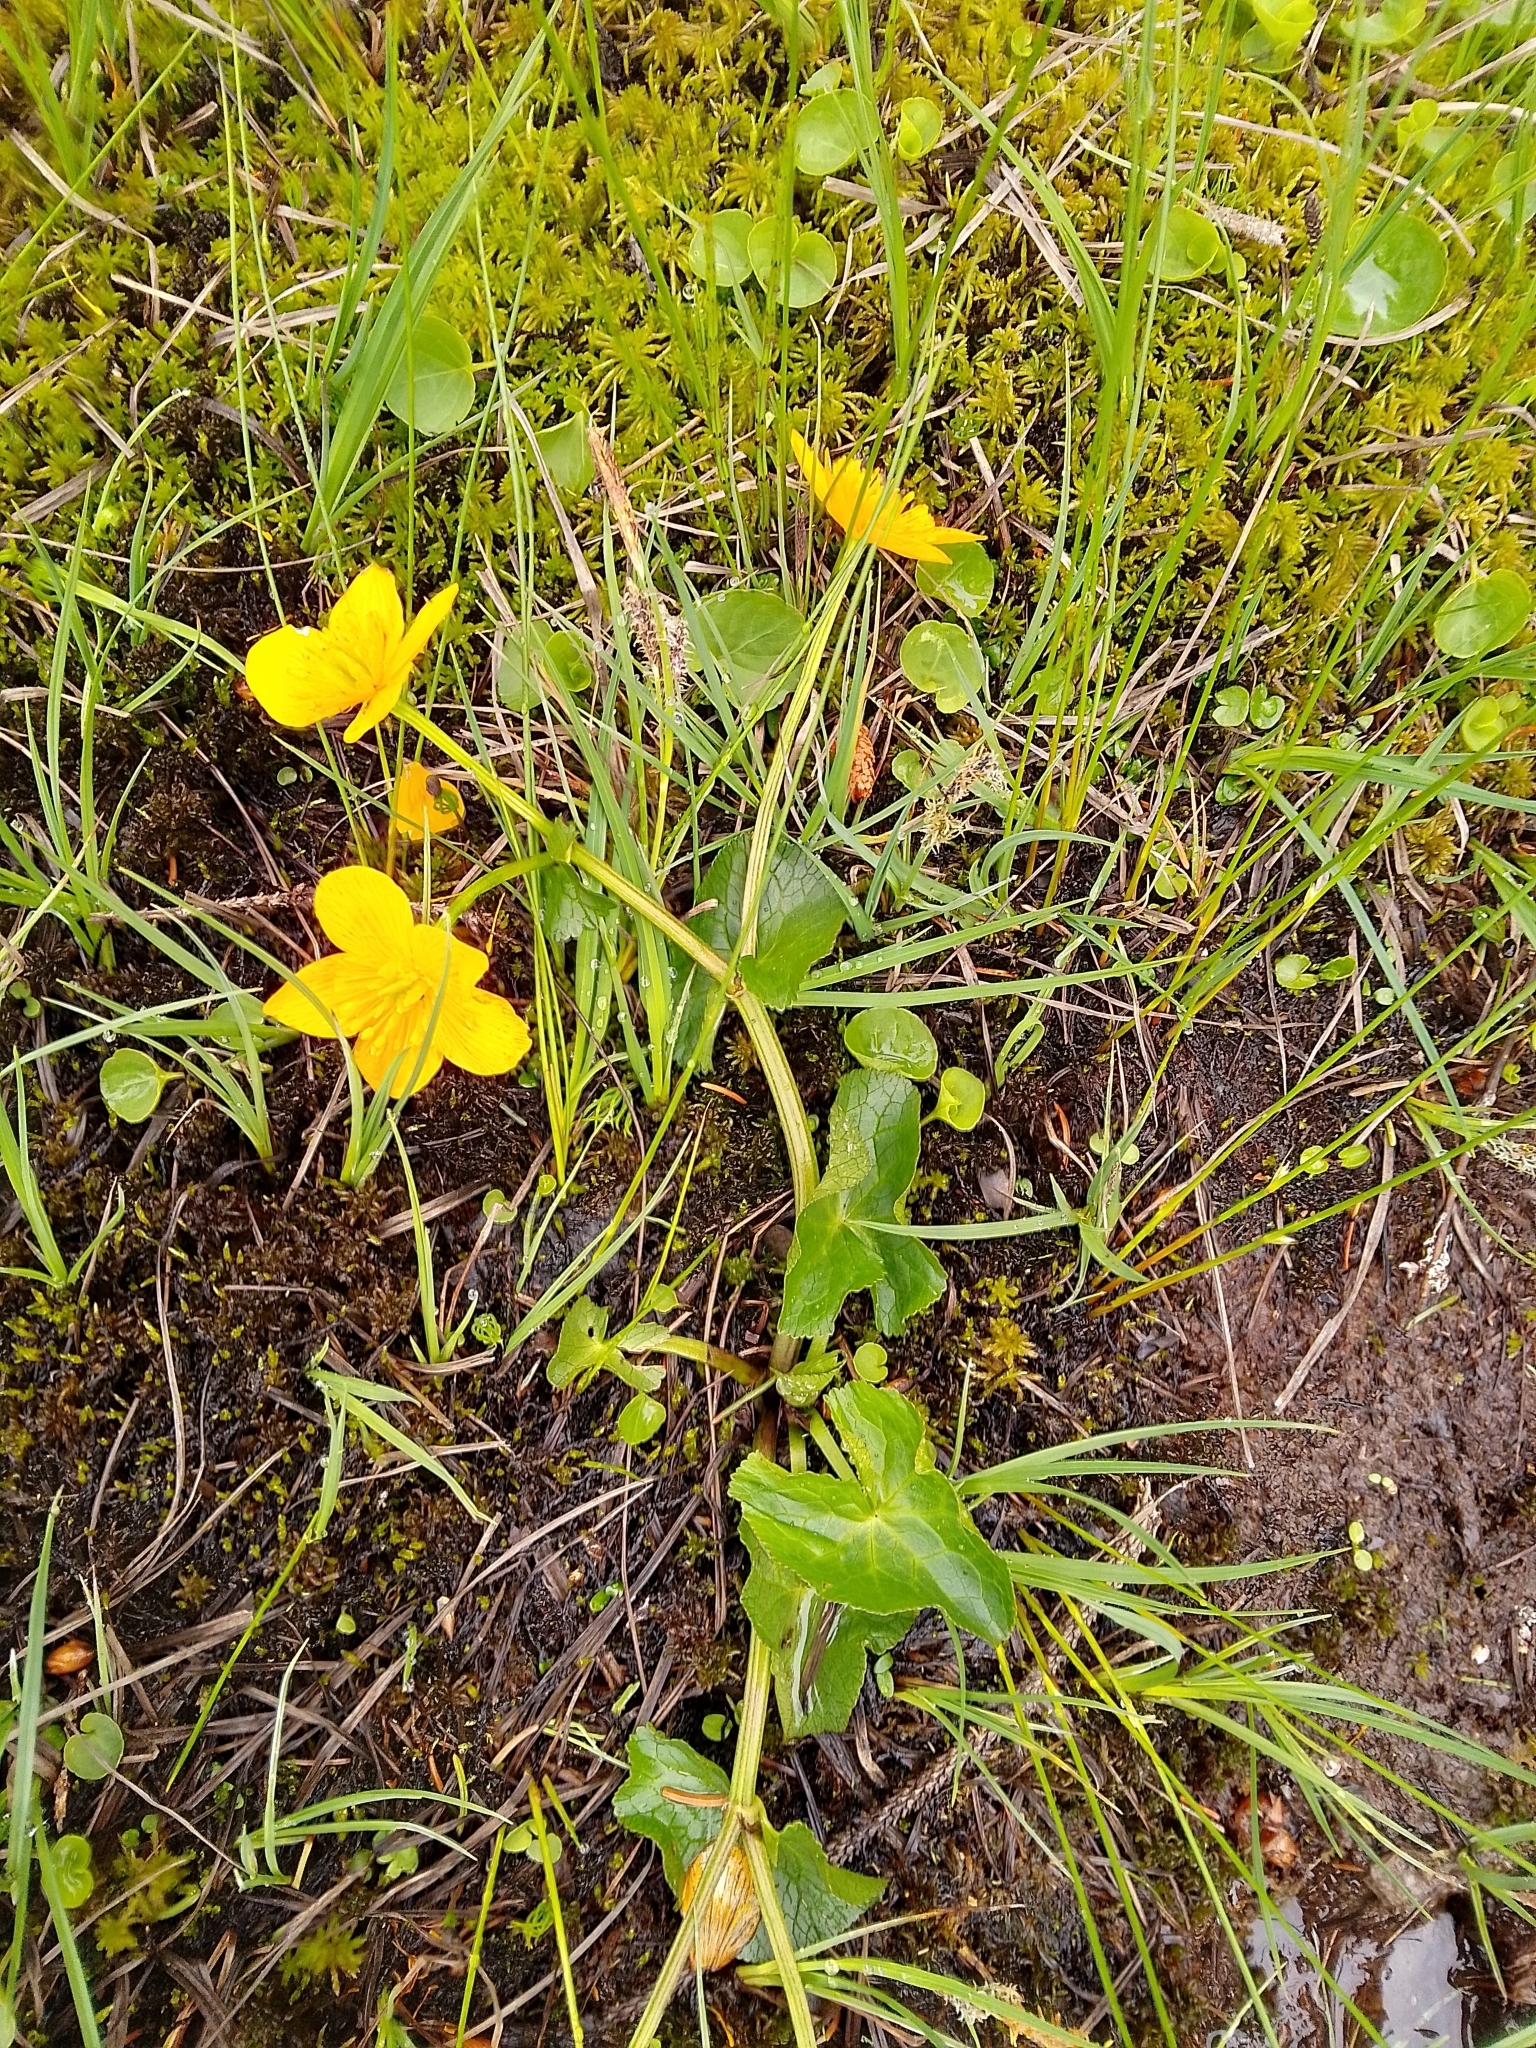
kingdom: Plantae
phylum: Tracheophyta
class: Magnoliopsida
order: Ranunculales
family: Ranunculaceae
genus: Caltha
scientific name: Caltha palustris
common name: Marsh marigold
